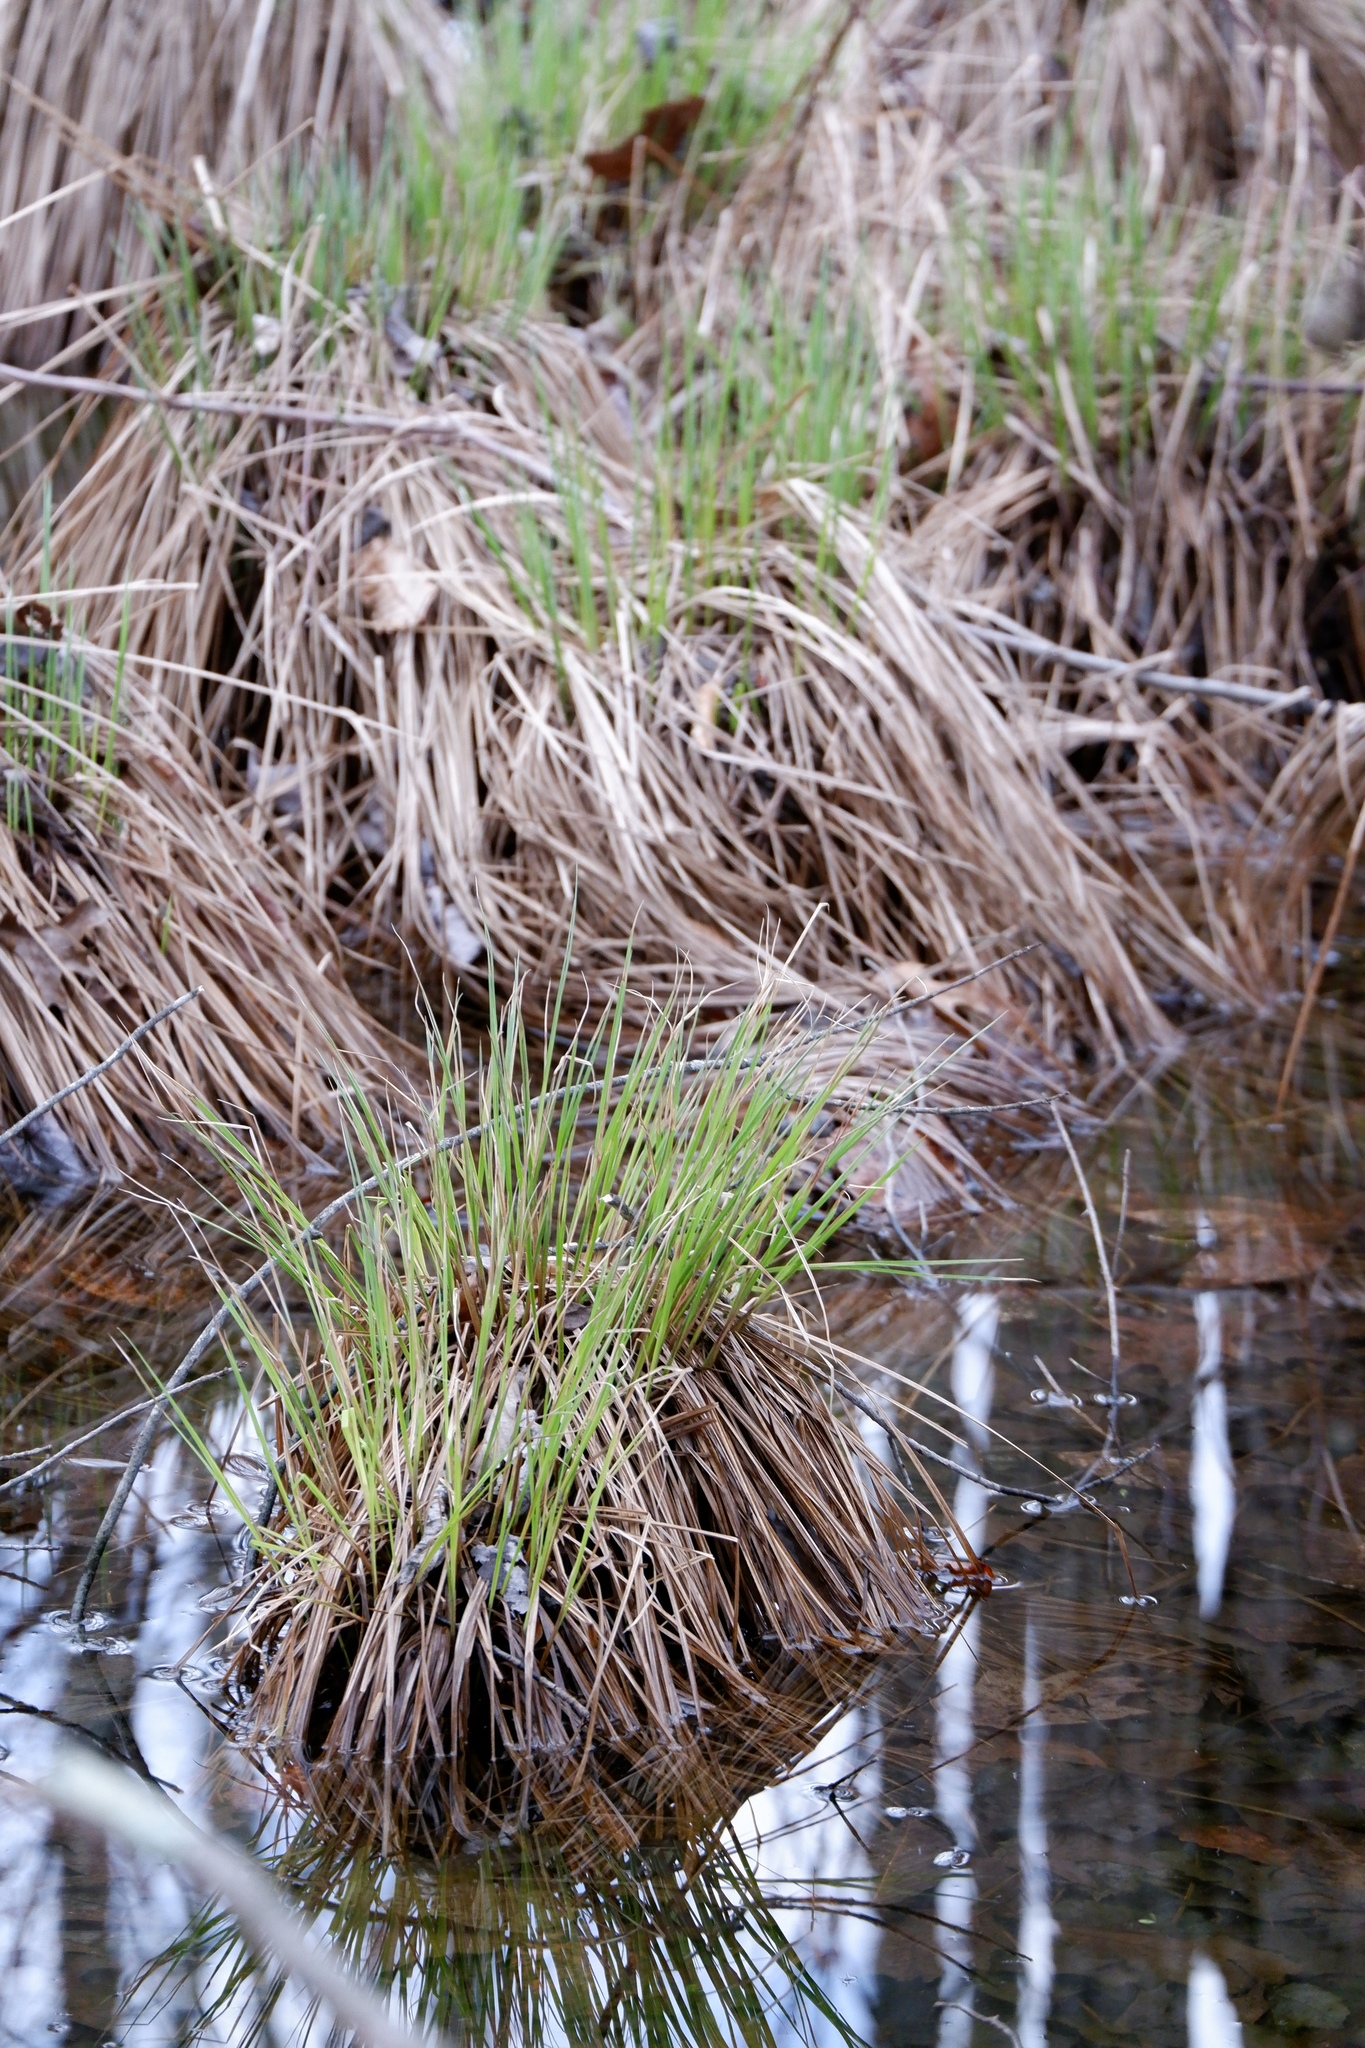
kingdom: Plantae
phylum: Tracheophyta
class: Liliopsida
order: Poales
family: Cyperaceae
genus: Carex
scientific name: Carex stricta
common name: Hummock sedge
